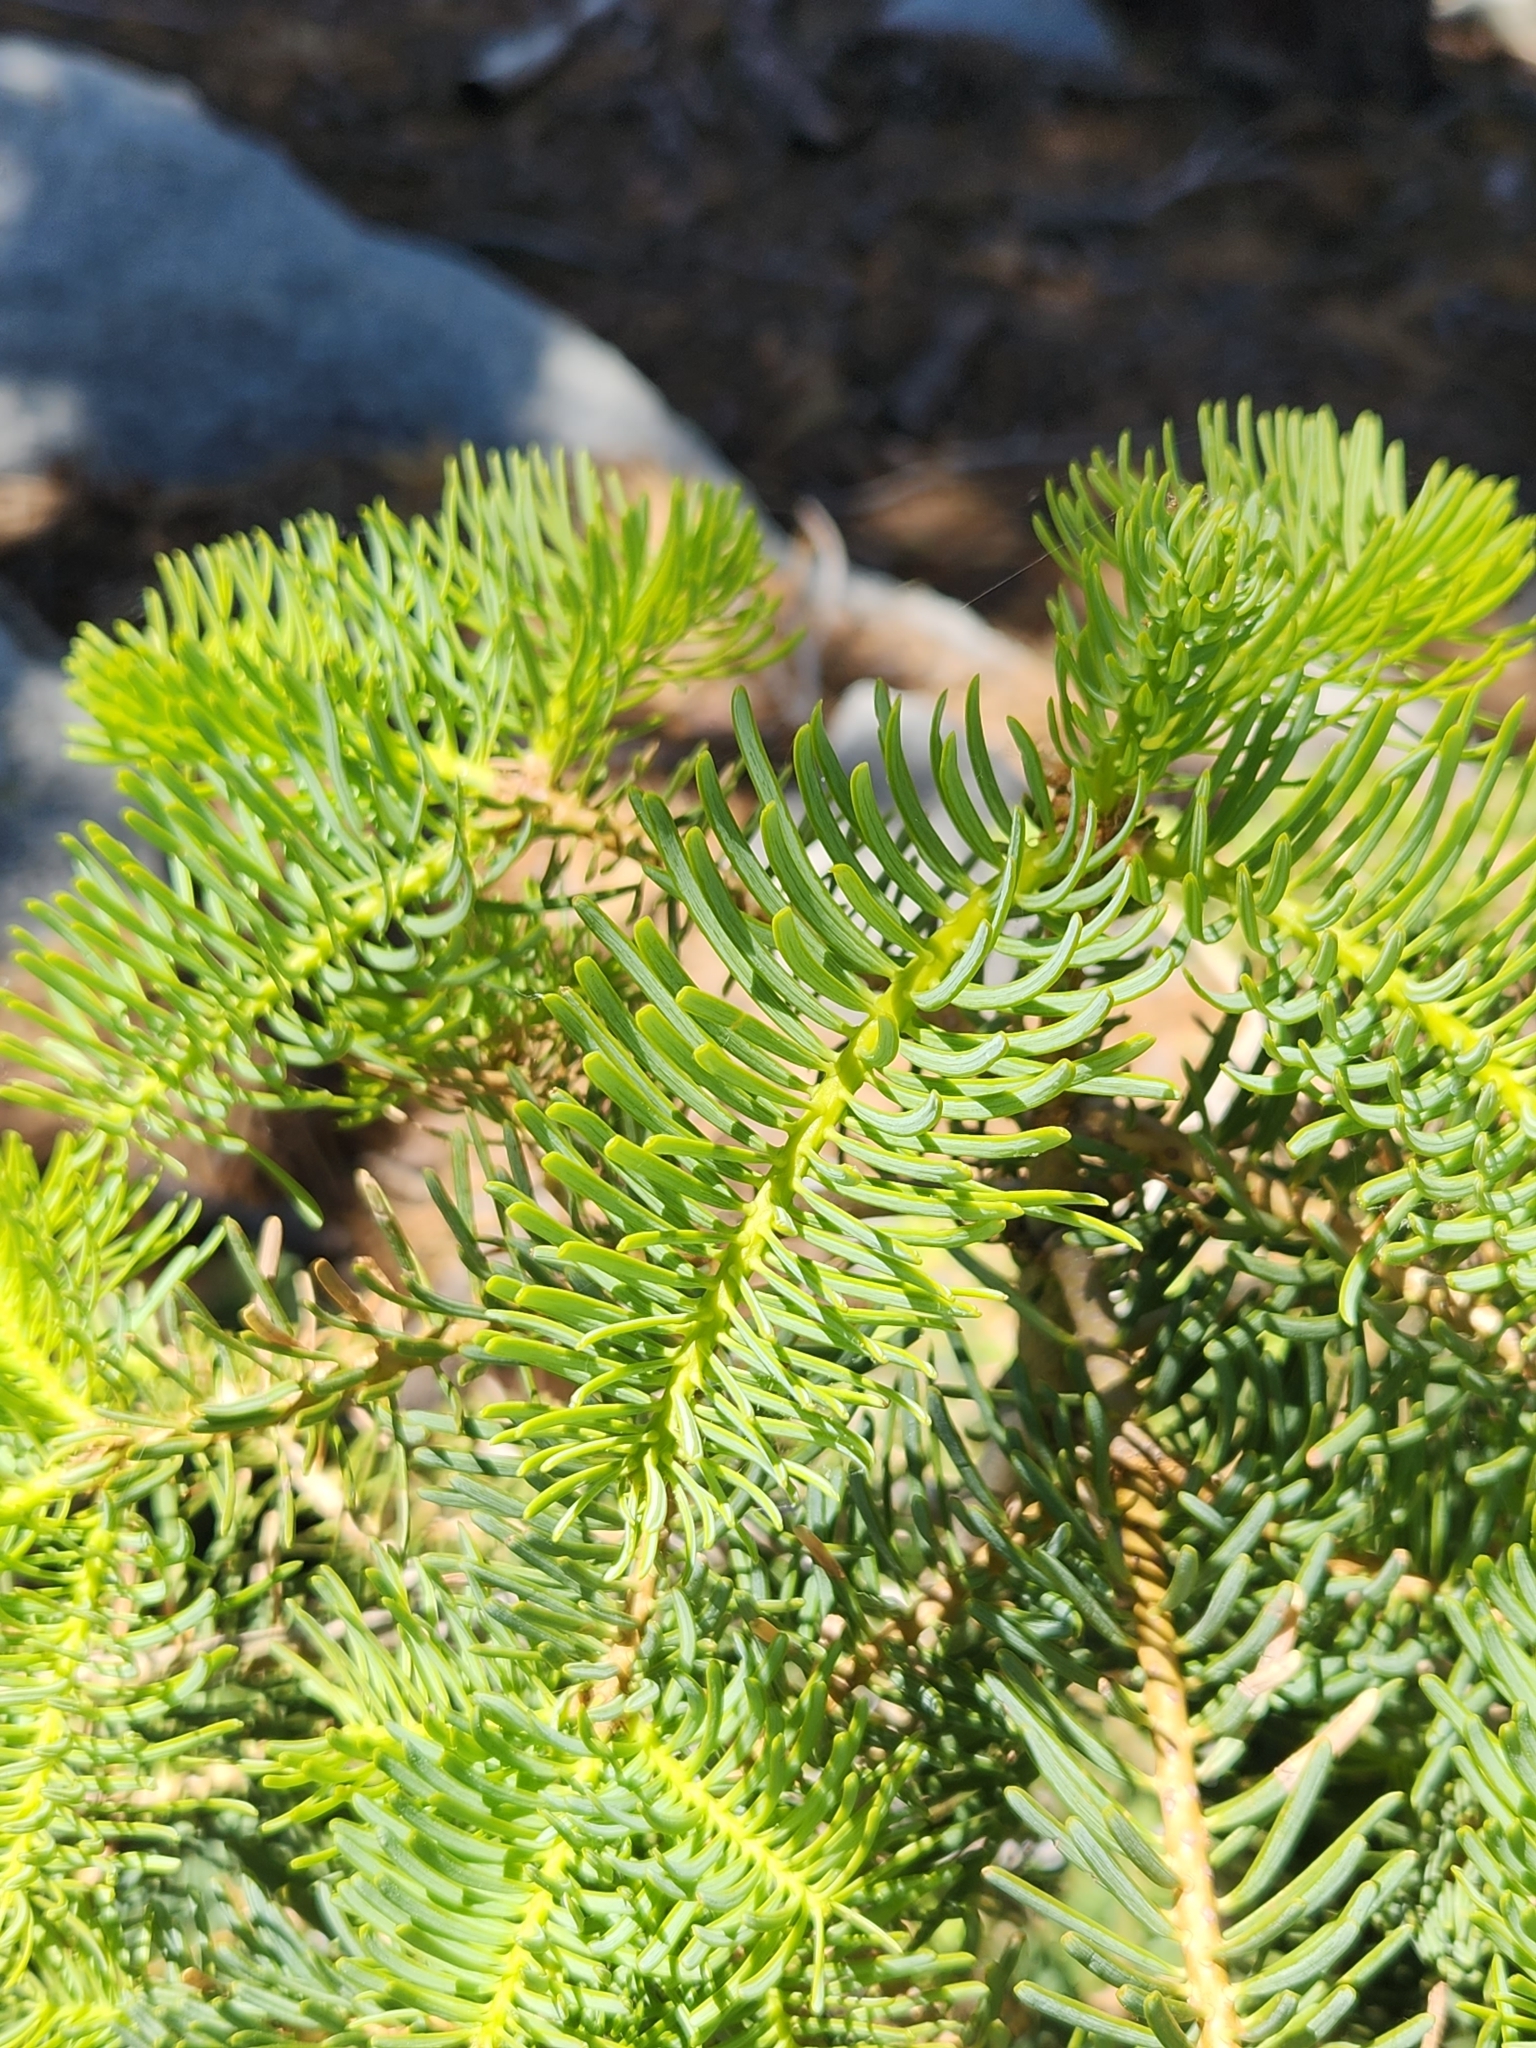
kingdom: Plantae
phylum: Tracheophyta
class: Pinopsida
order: Pinales
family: Pinaceae
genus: Abies
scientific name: Abies concolor
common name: Colorado fir
